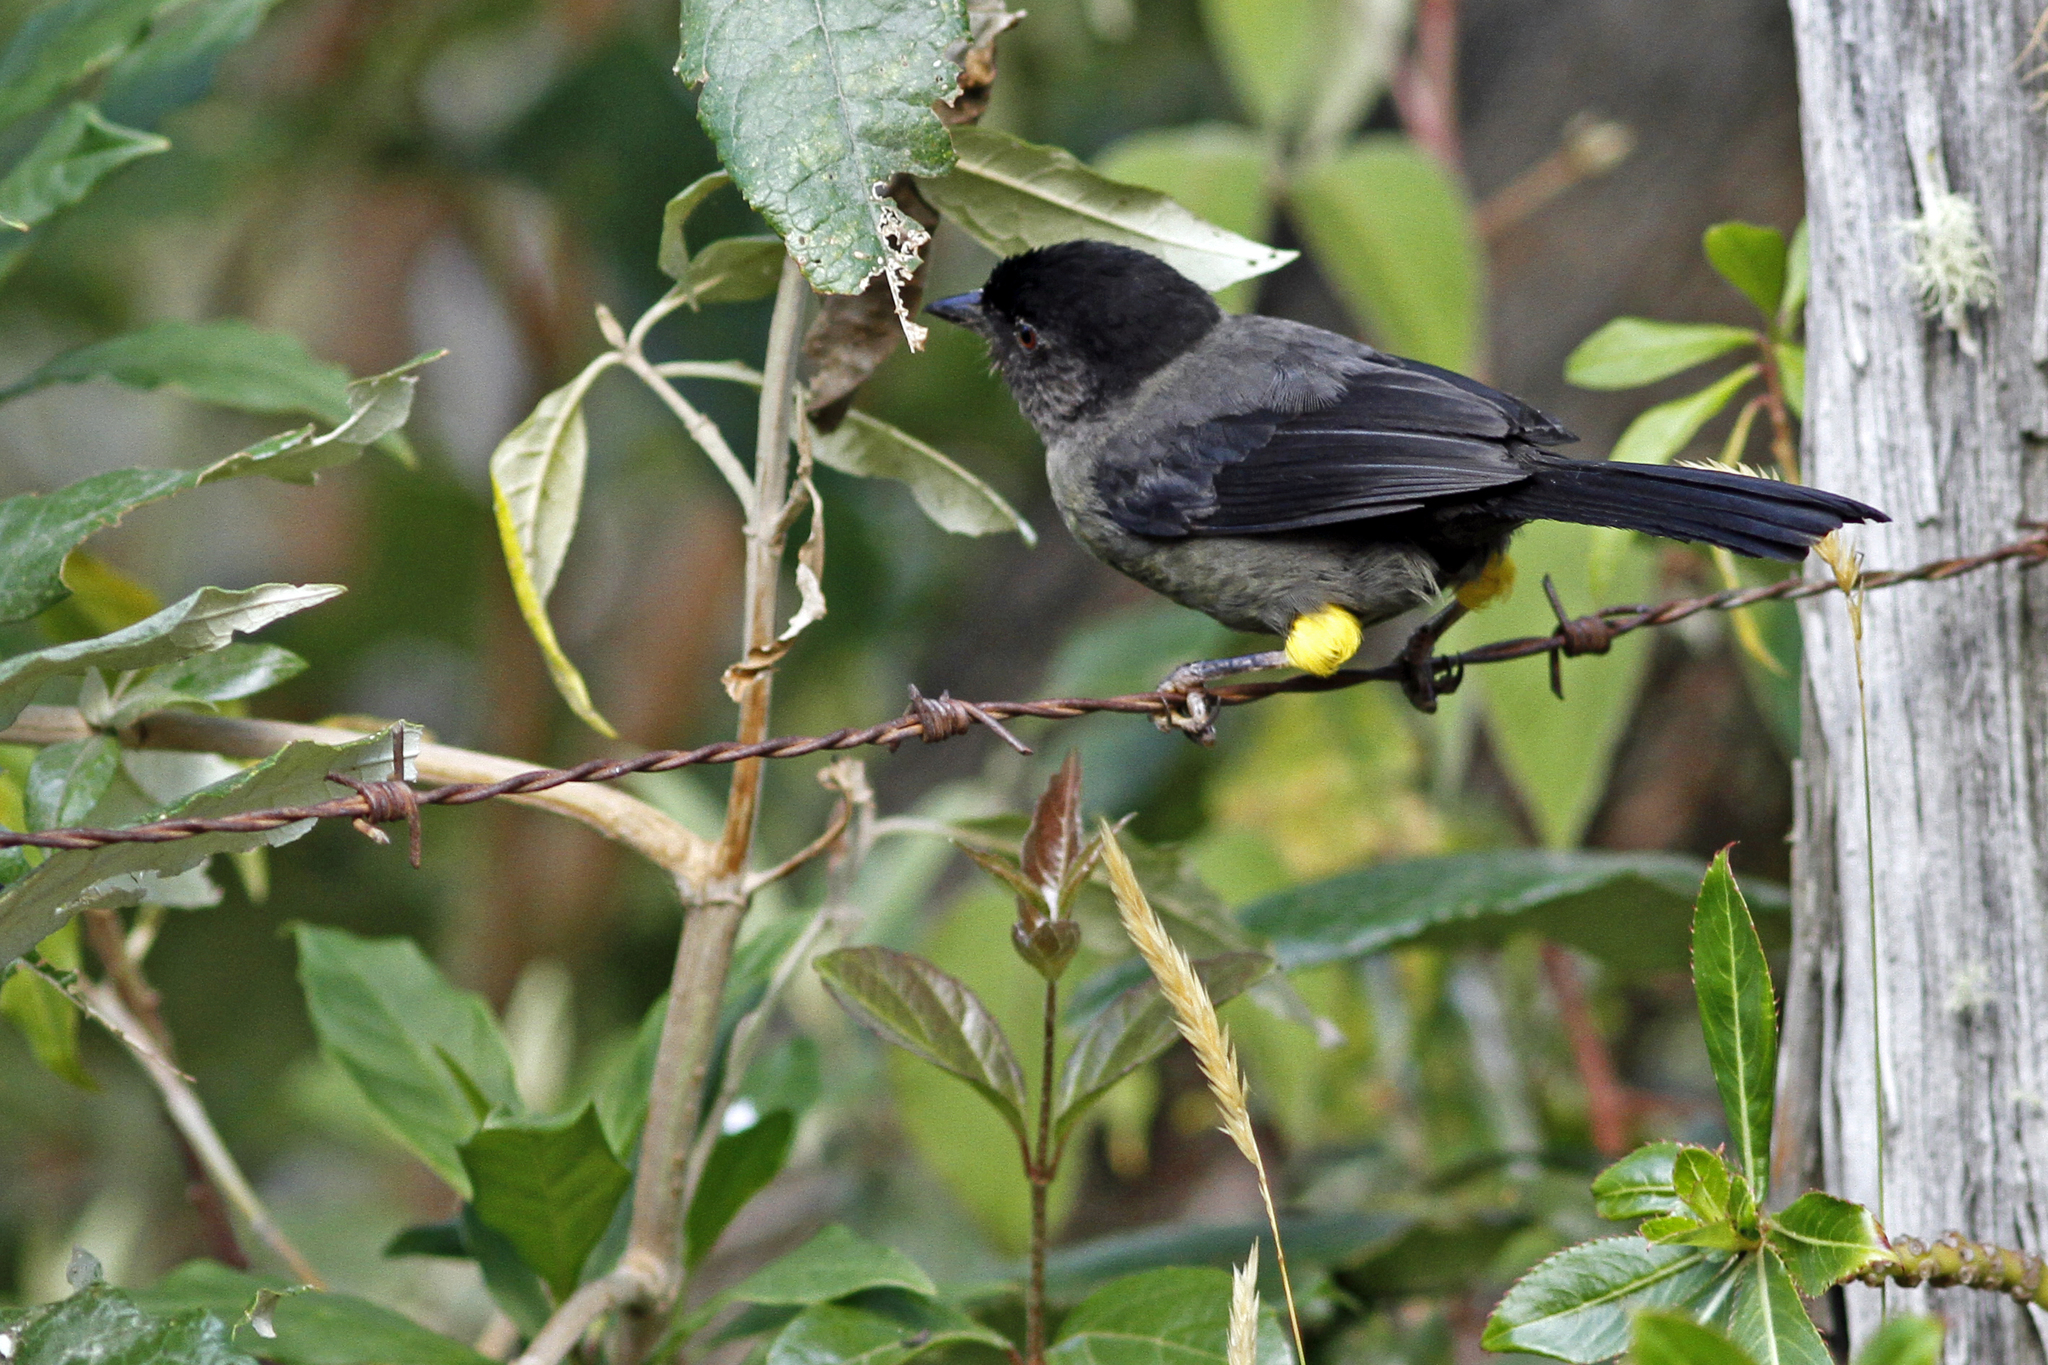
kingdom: Animalia
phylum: Chordata
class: Aves
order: Passeriformes
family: Passerellidae
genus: Atlapetes
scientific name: Atlapetes tibialis
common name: Yellow-thighed brushfinch
